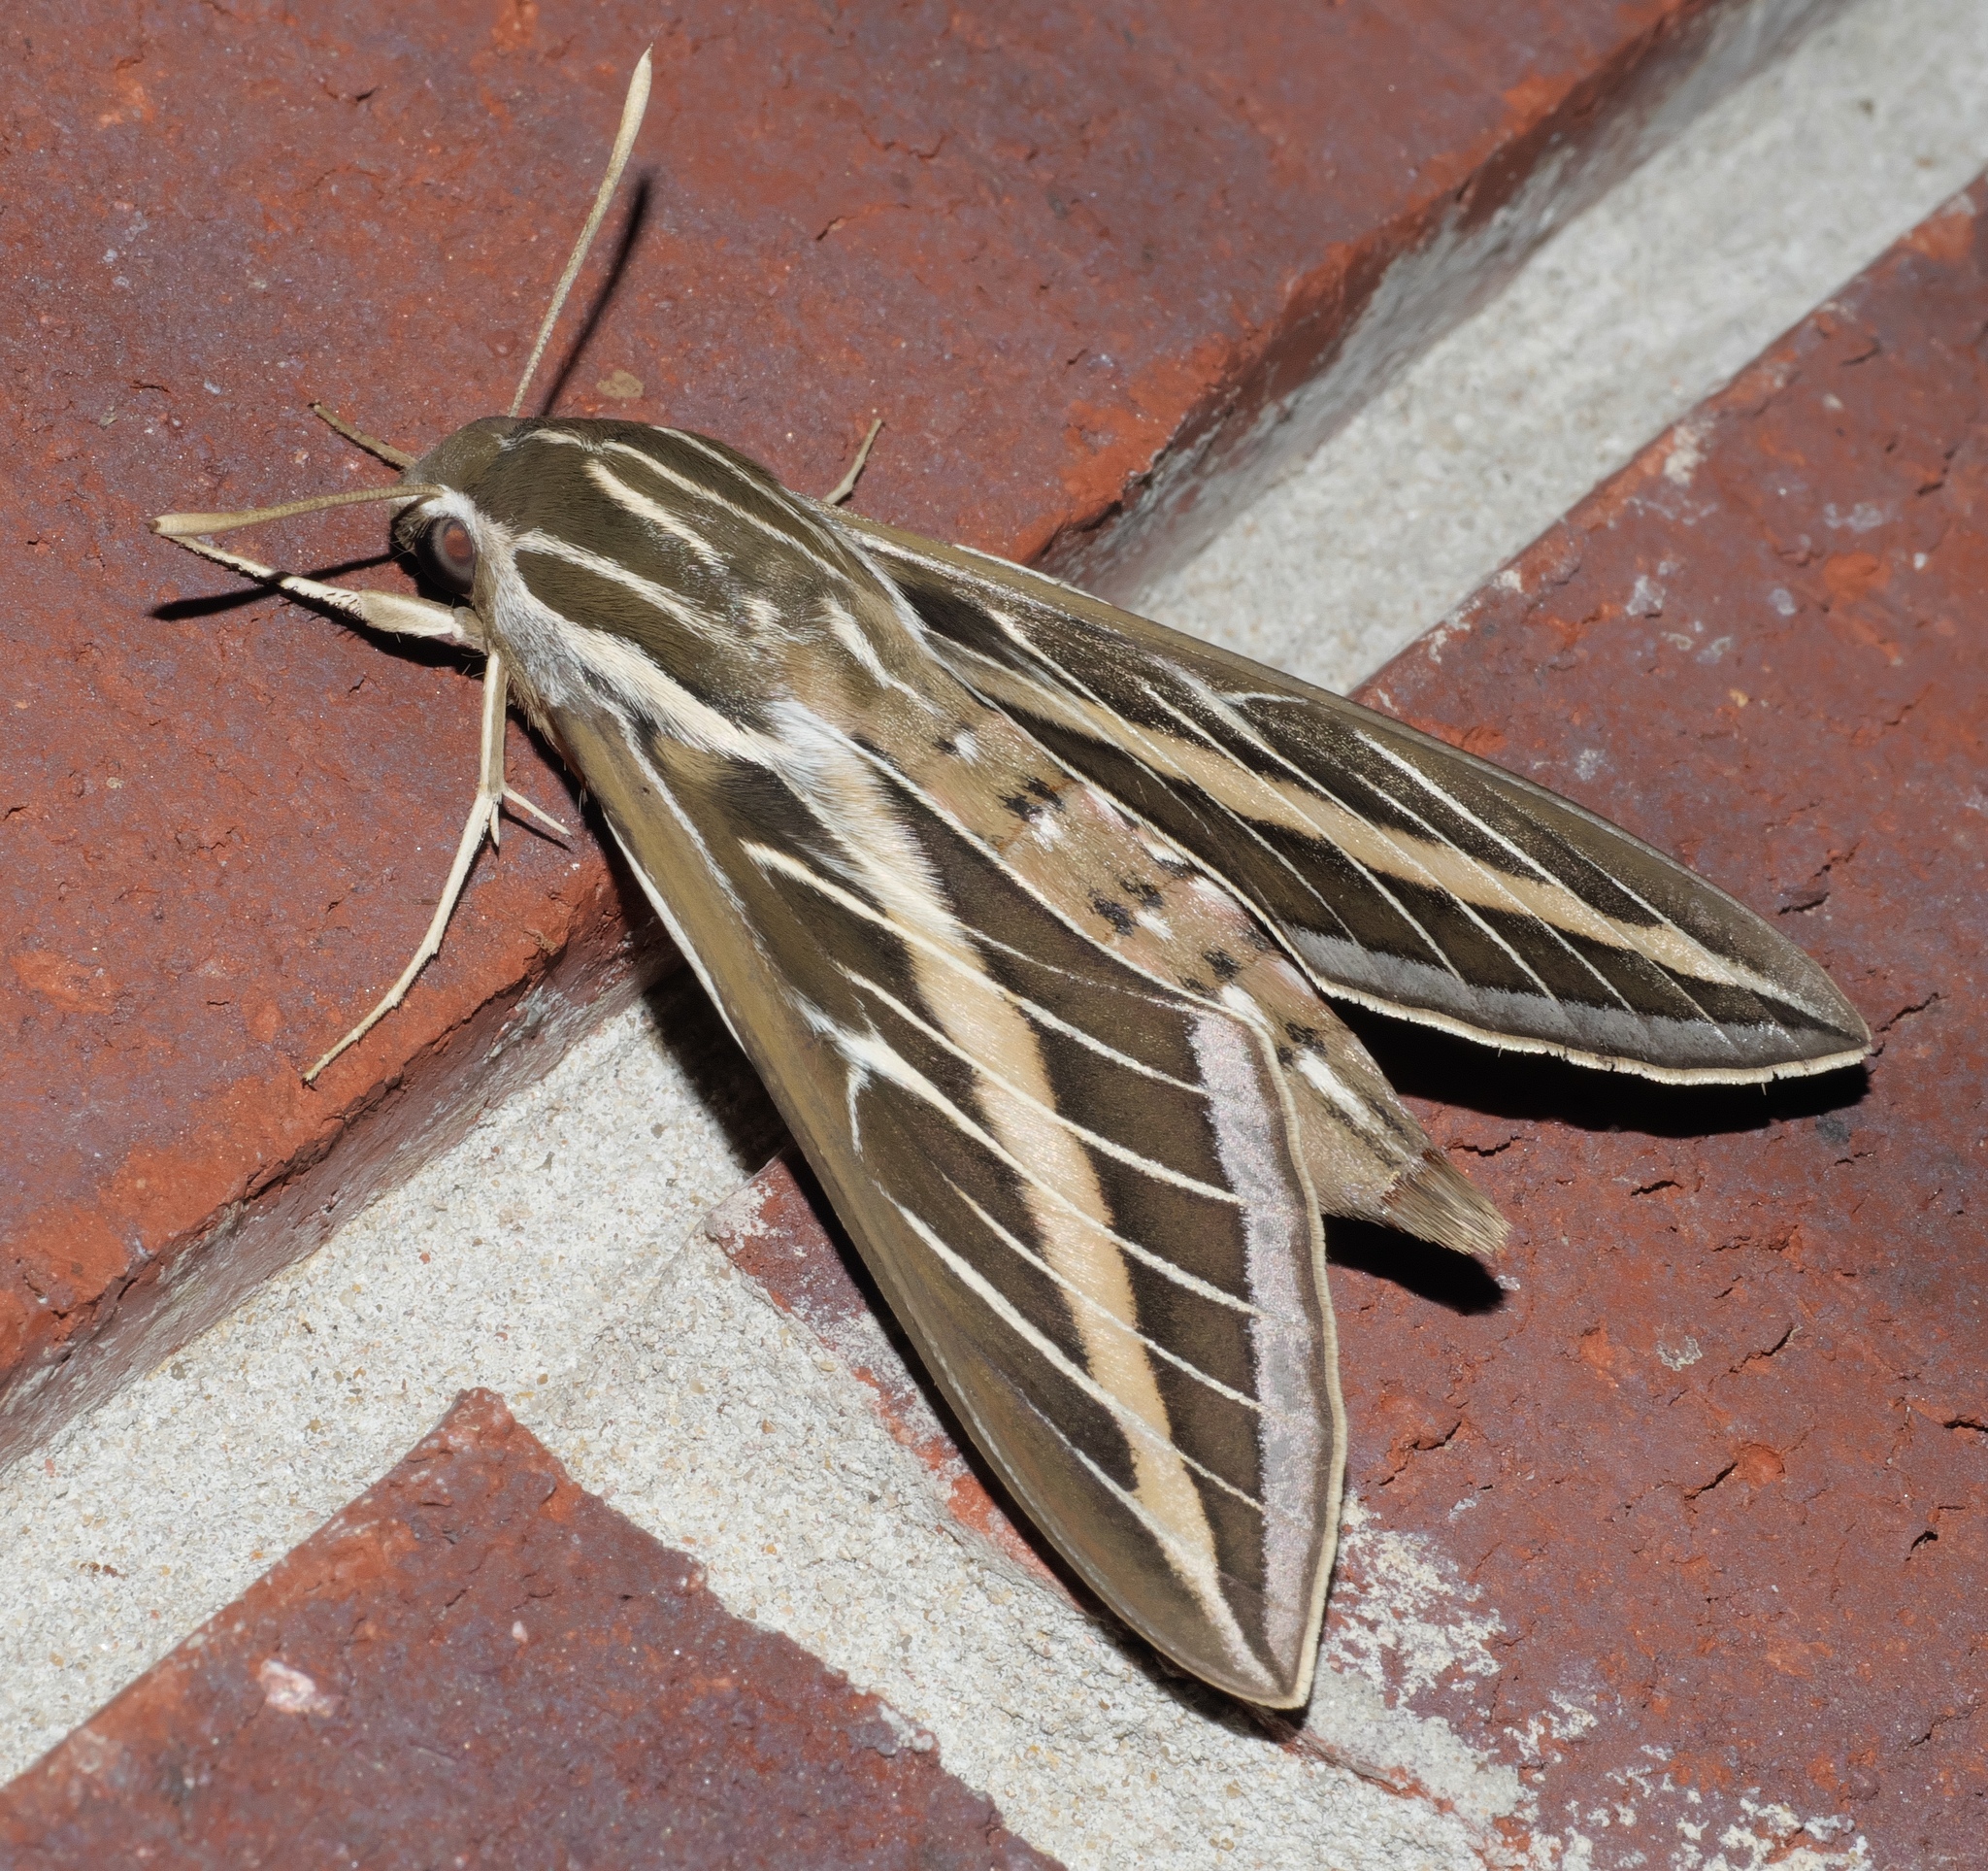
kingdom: Animalia
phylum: Arthropoda
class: Insecta
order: Lepidoptera
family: Sphingidae
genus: Hyles
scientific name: Hyles lineata
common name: White-lined sphinx
